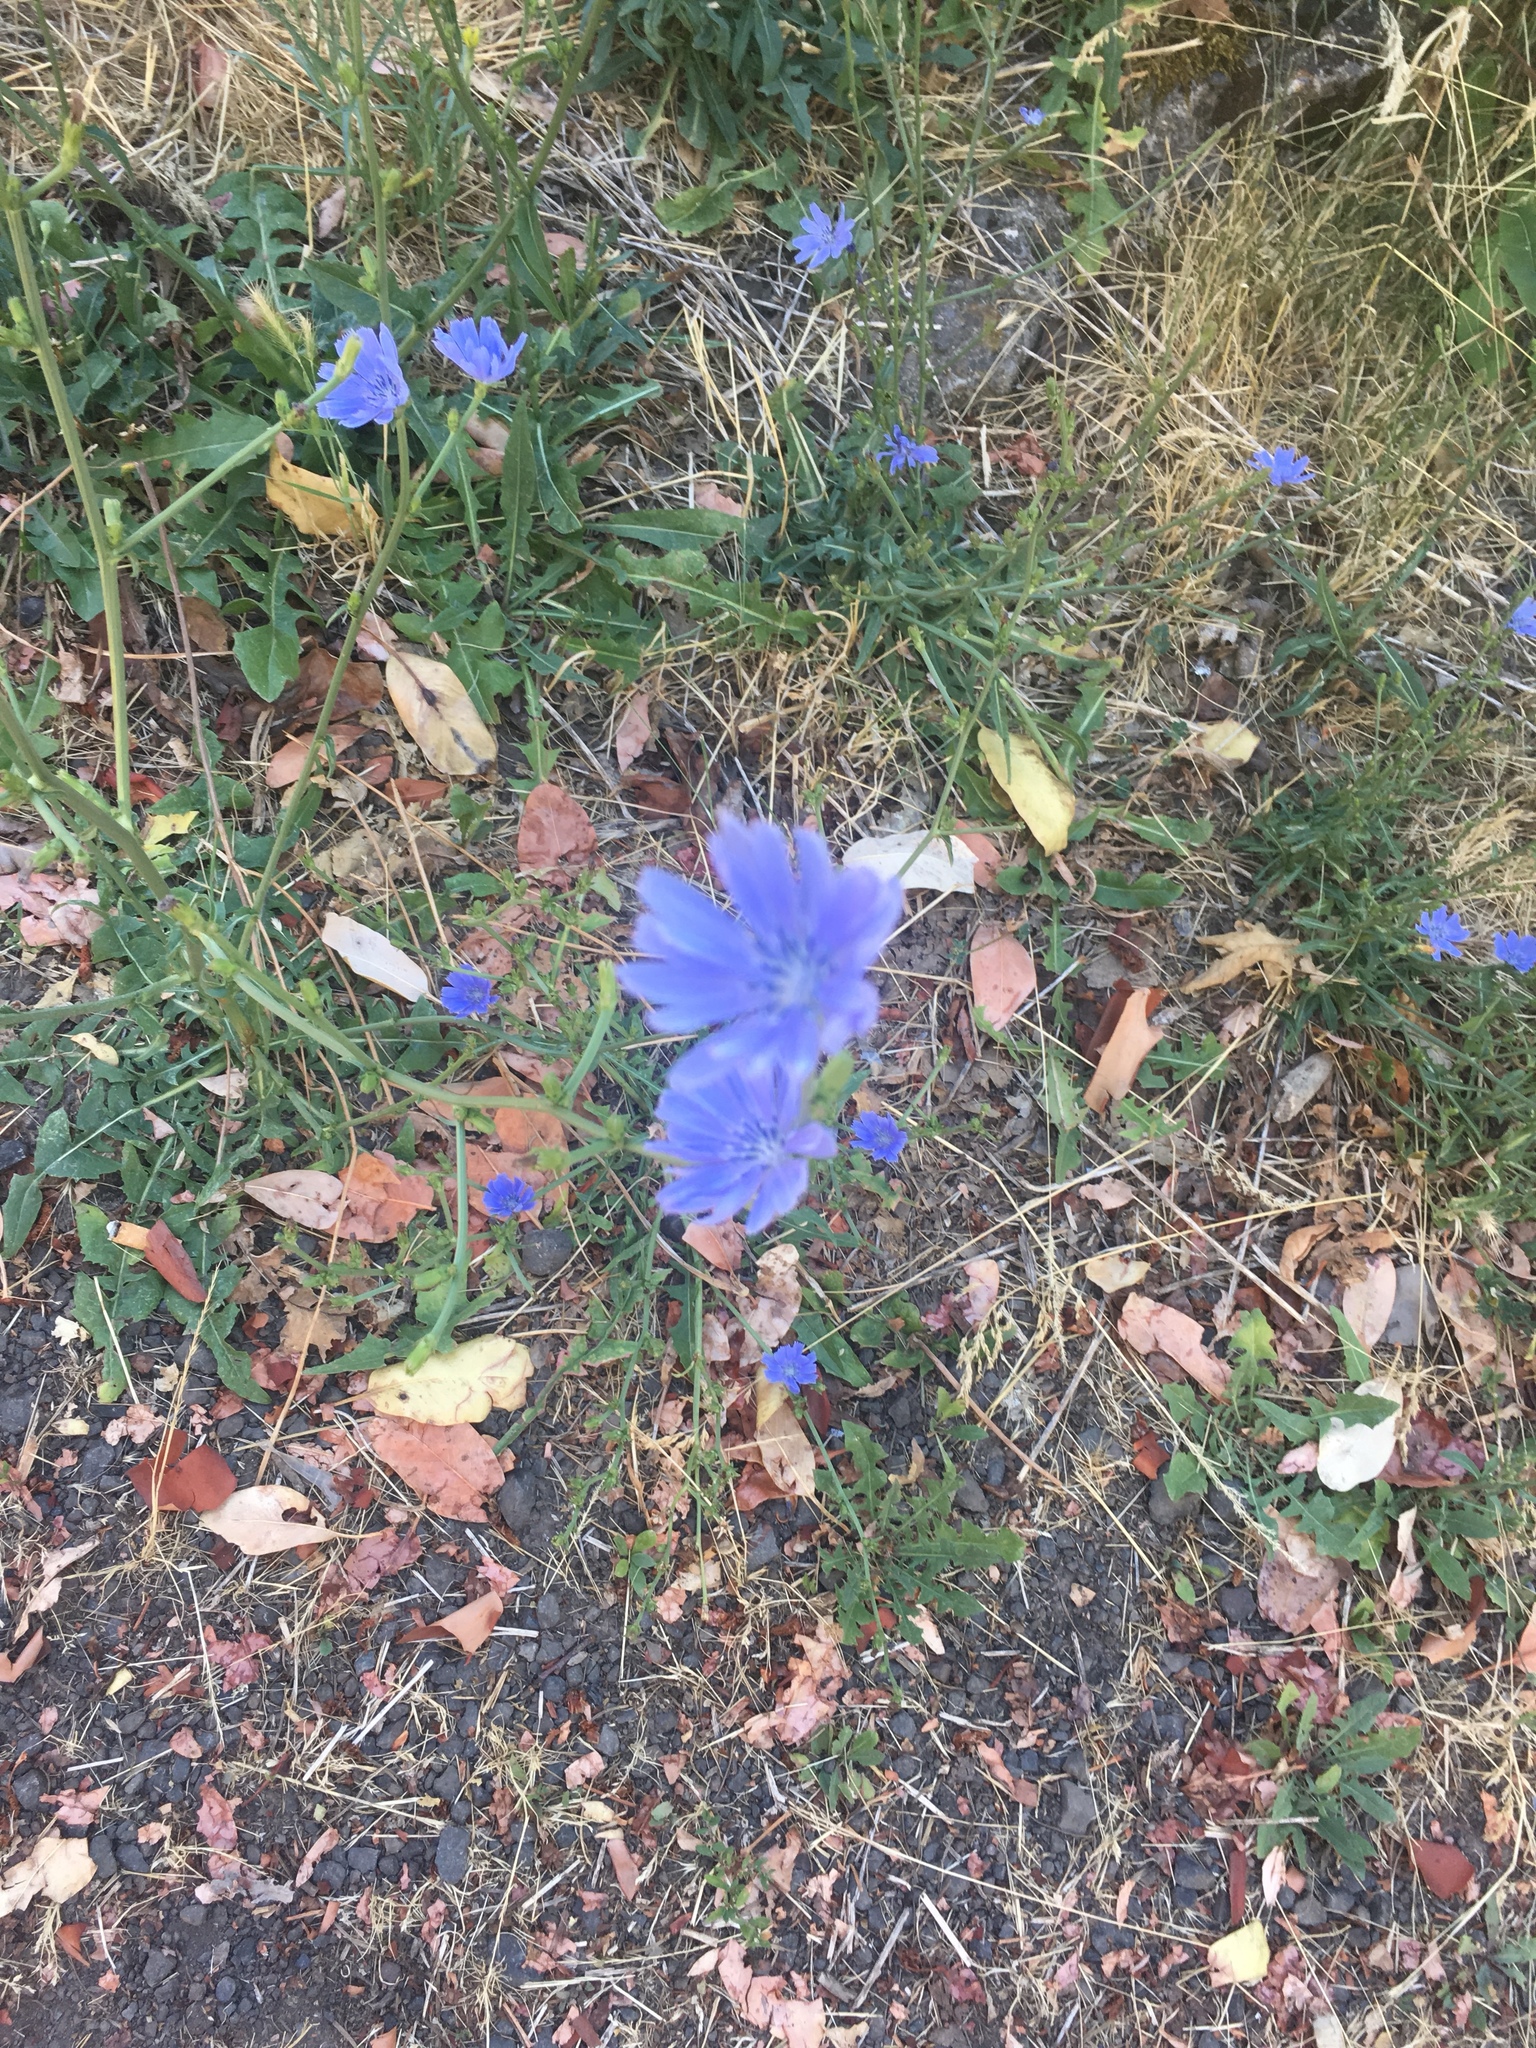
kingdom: Plantae
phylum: Tracheophyta
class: Magnoliopsida
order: Asterales
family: Asteraceae
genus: Cichorium
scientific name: Cichorium intybus
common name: Chicory
